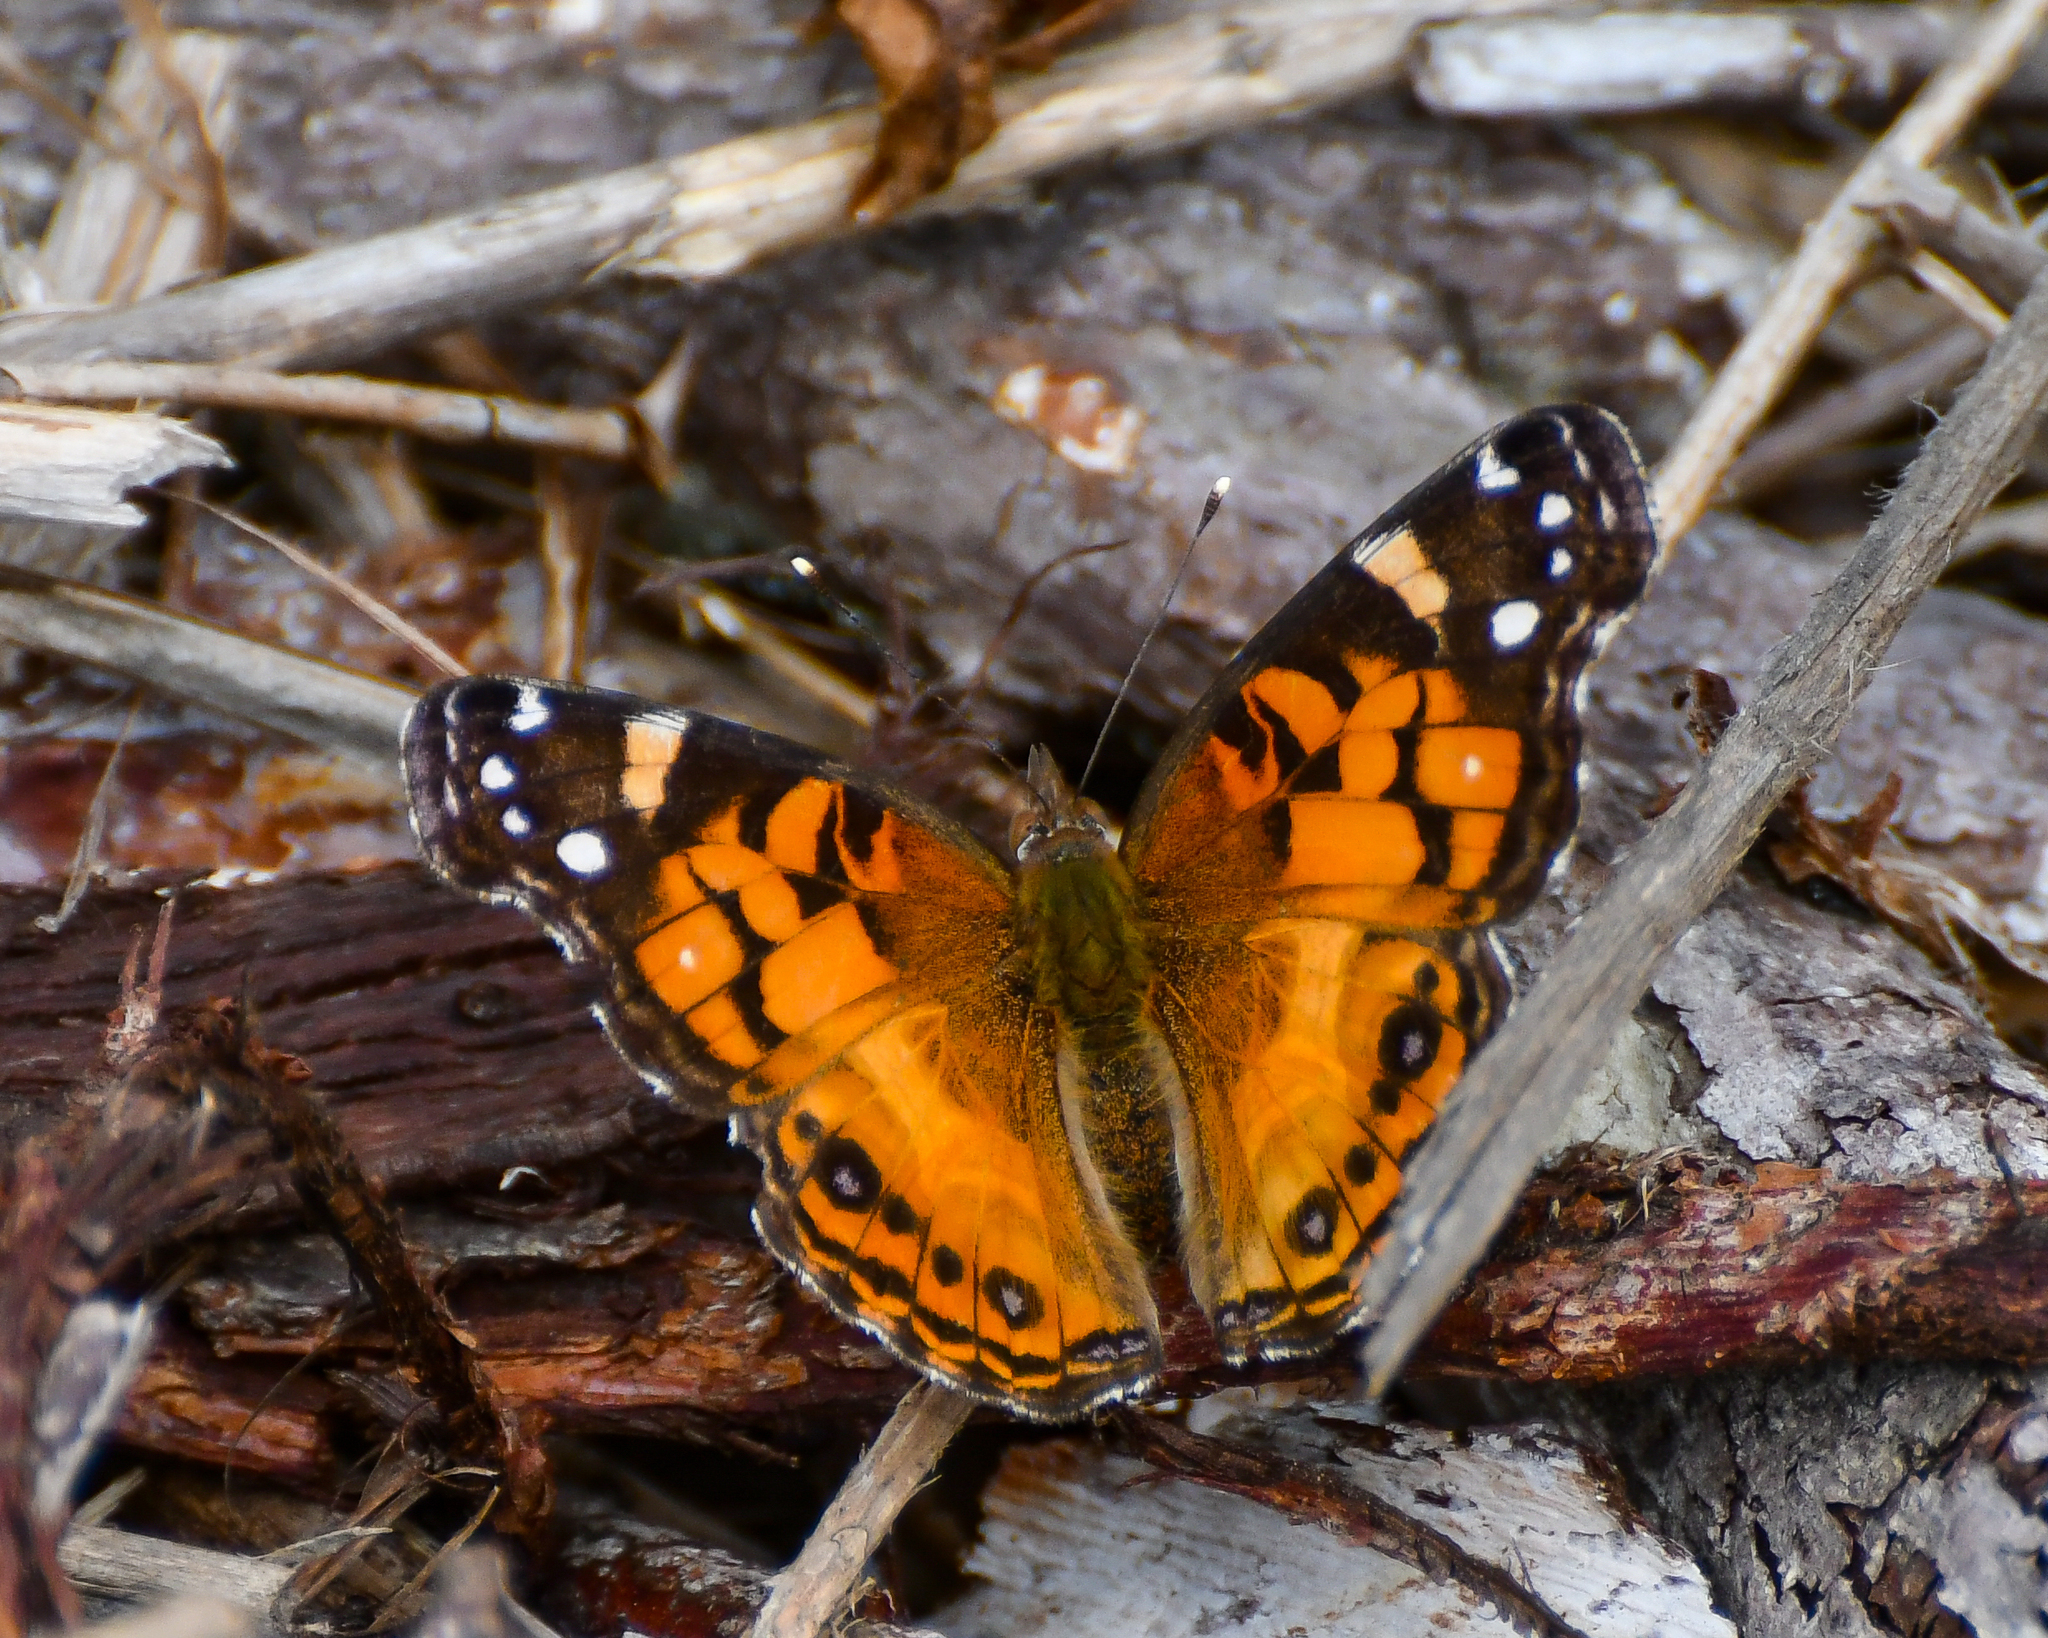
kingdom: Animalia
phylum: Arthropoda
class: Insecta
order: Lepidoptera
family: Nymphalidae
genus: Vanessa
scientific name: Vanessa virginiensis
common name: American lady
